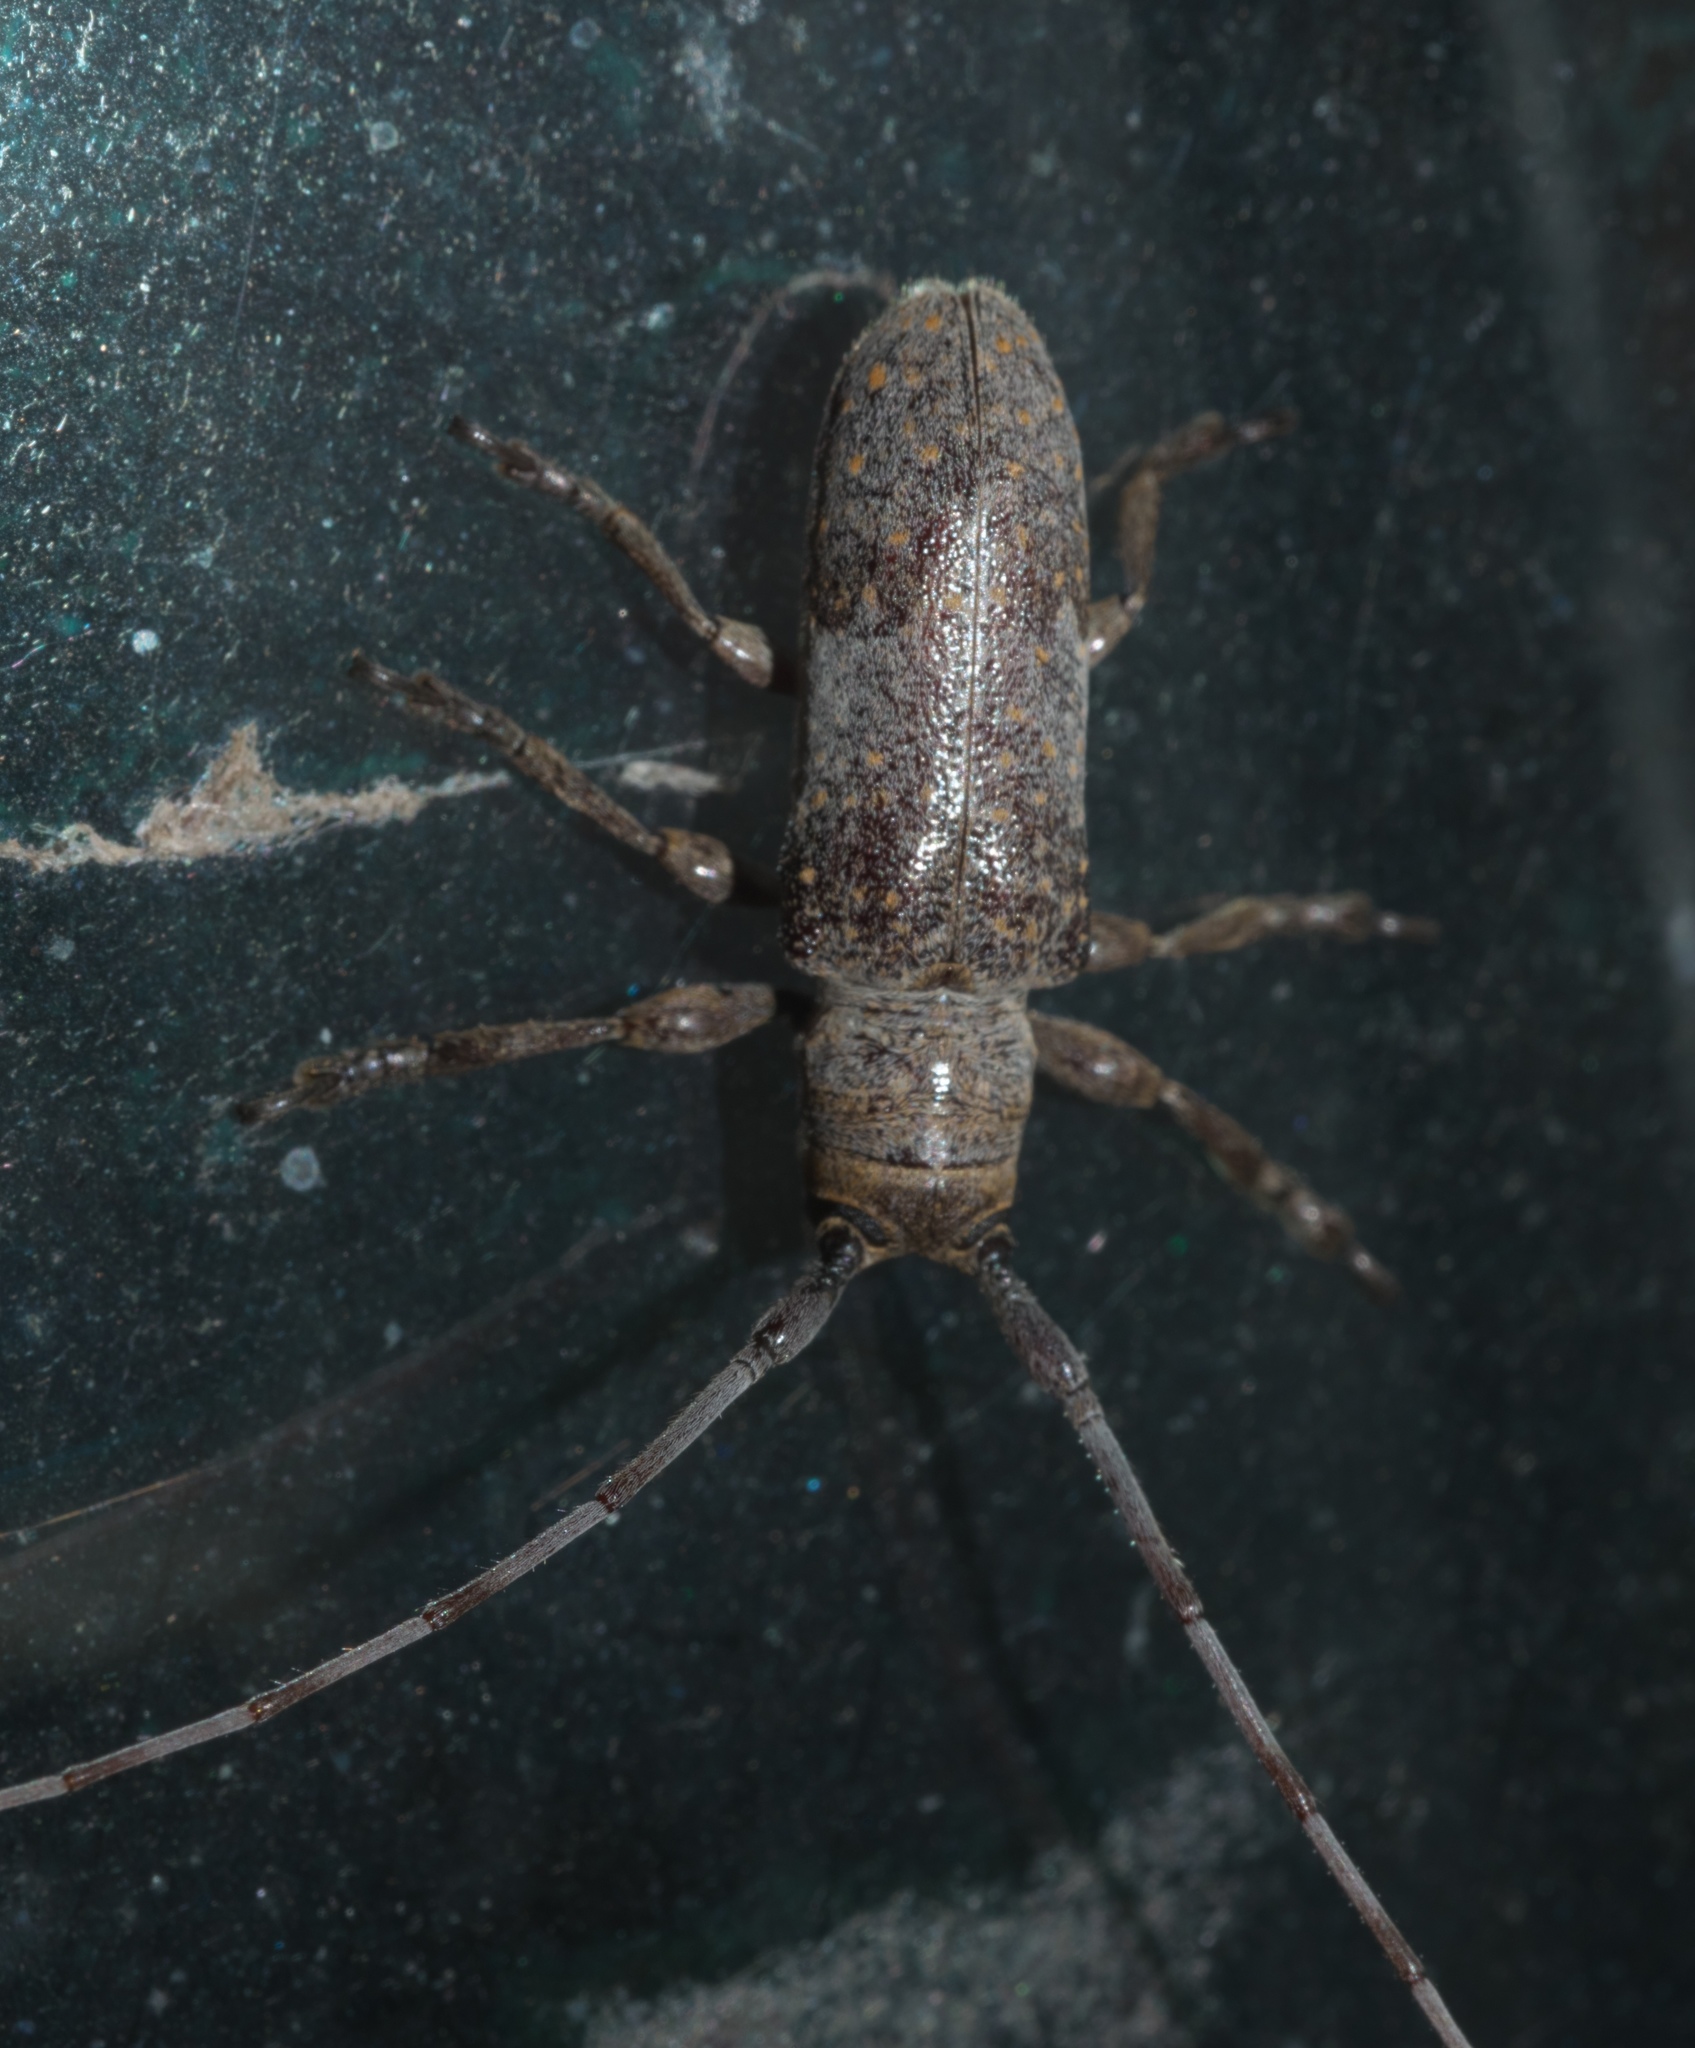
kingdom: Animalia
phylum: Arthropoda
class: Insecta
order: Coleoptera
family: Cerambycidae
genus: Oncideres
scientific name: Oncideres cingulata
